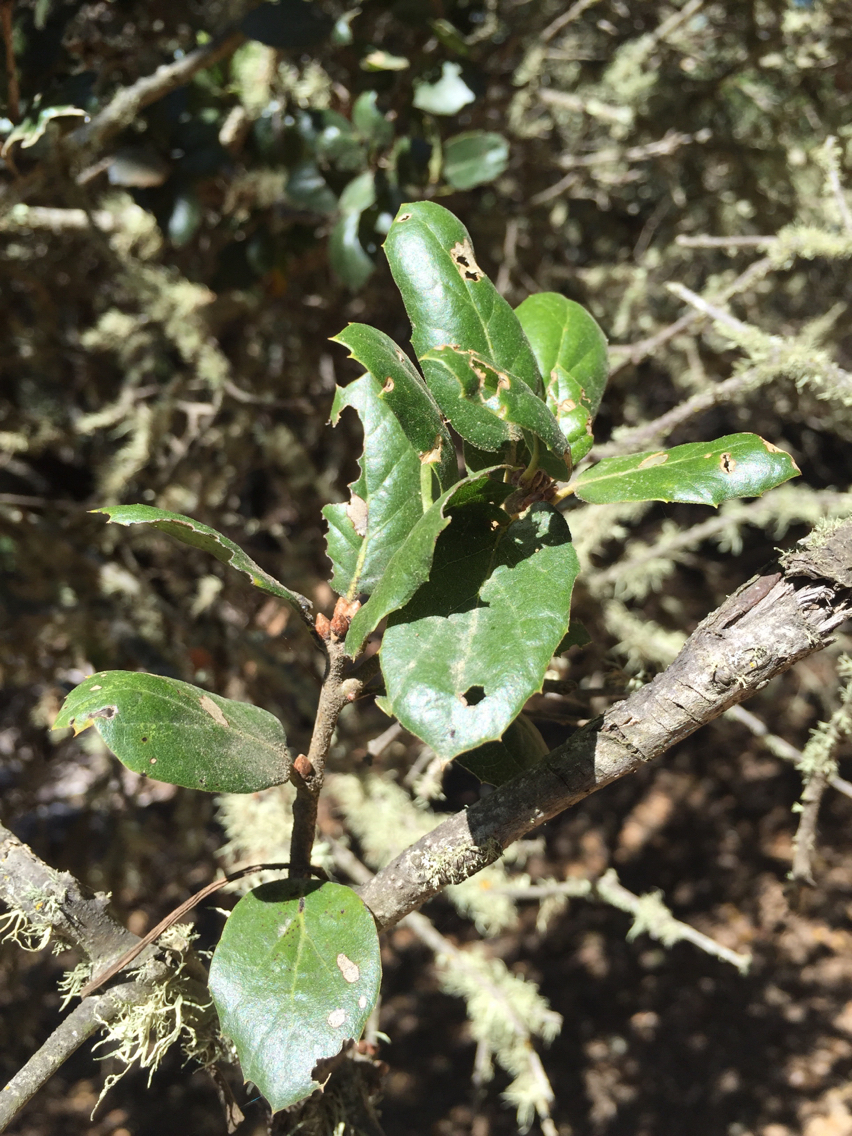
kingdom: Plantae
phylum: Tracheophyta
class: Magnoliopsida
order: Fagales
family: Fagaceae
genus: Quercus
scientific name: Quercus agrifolia
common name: California live oak
